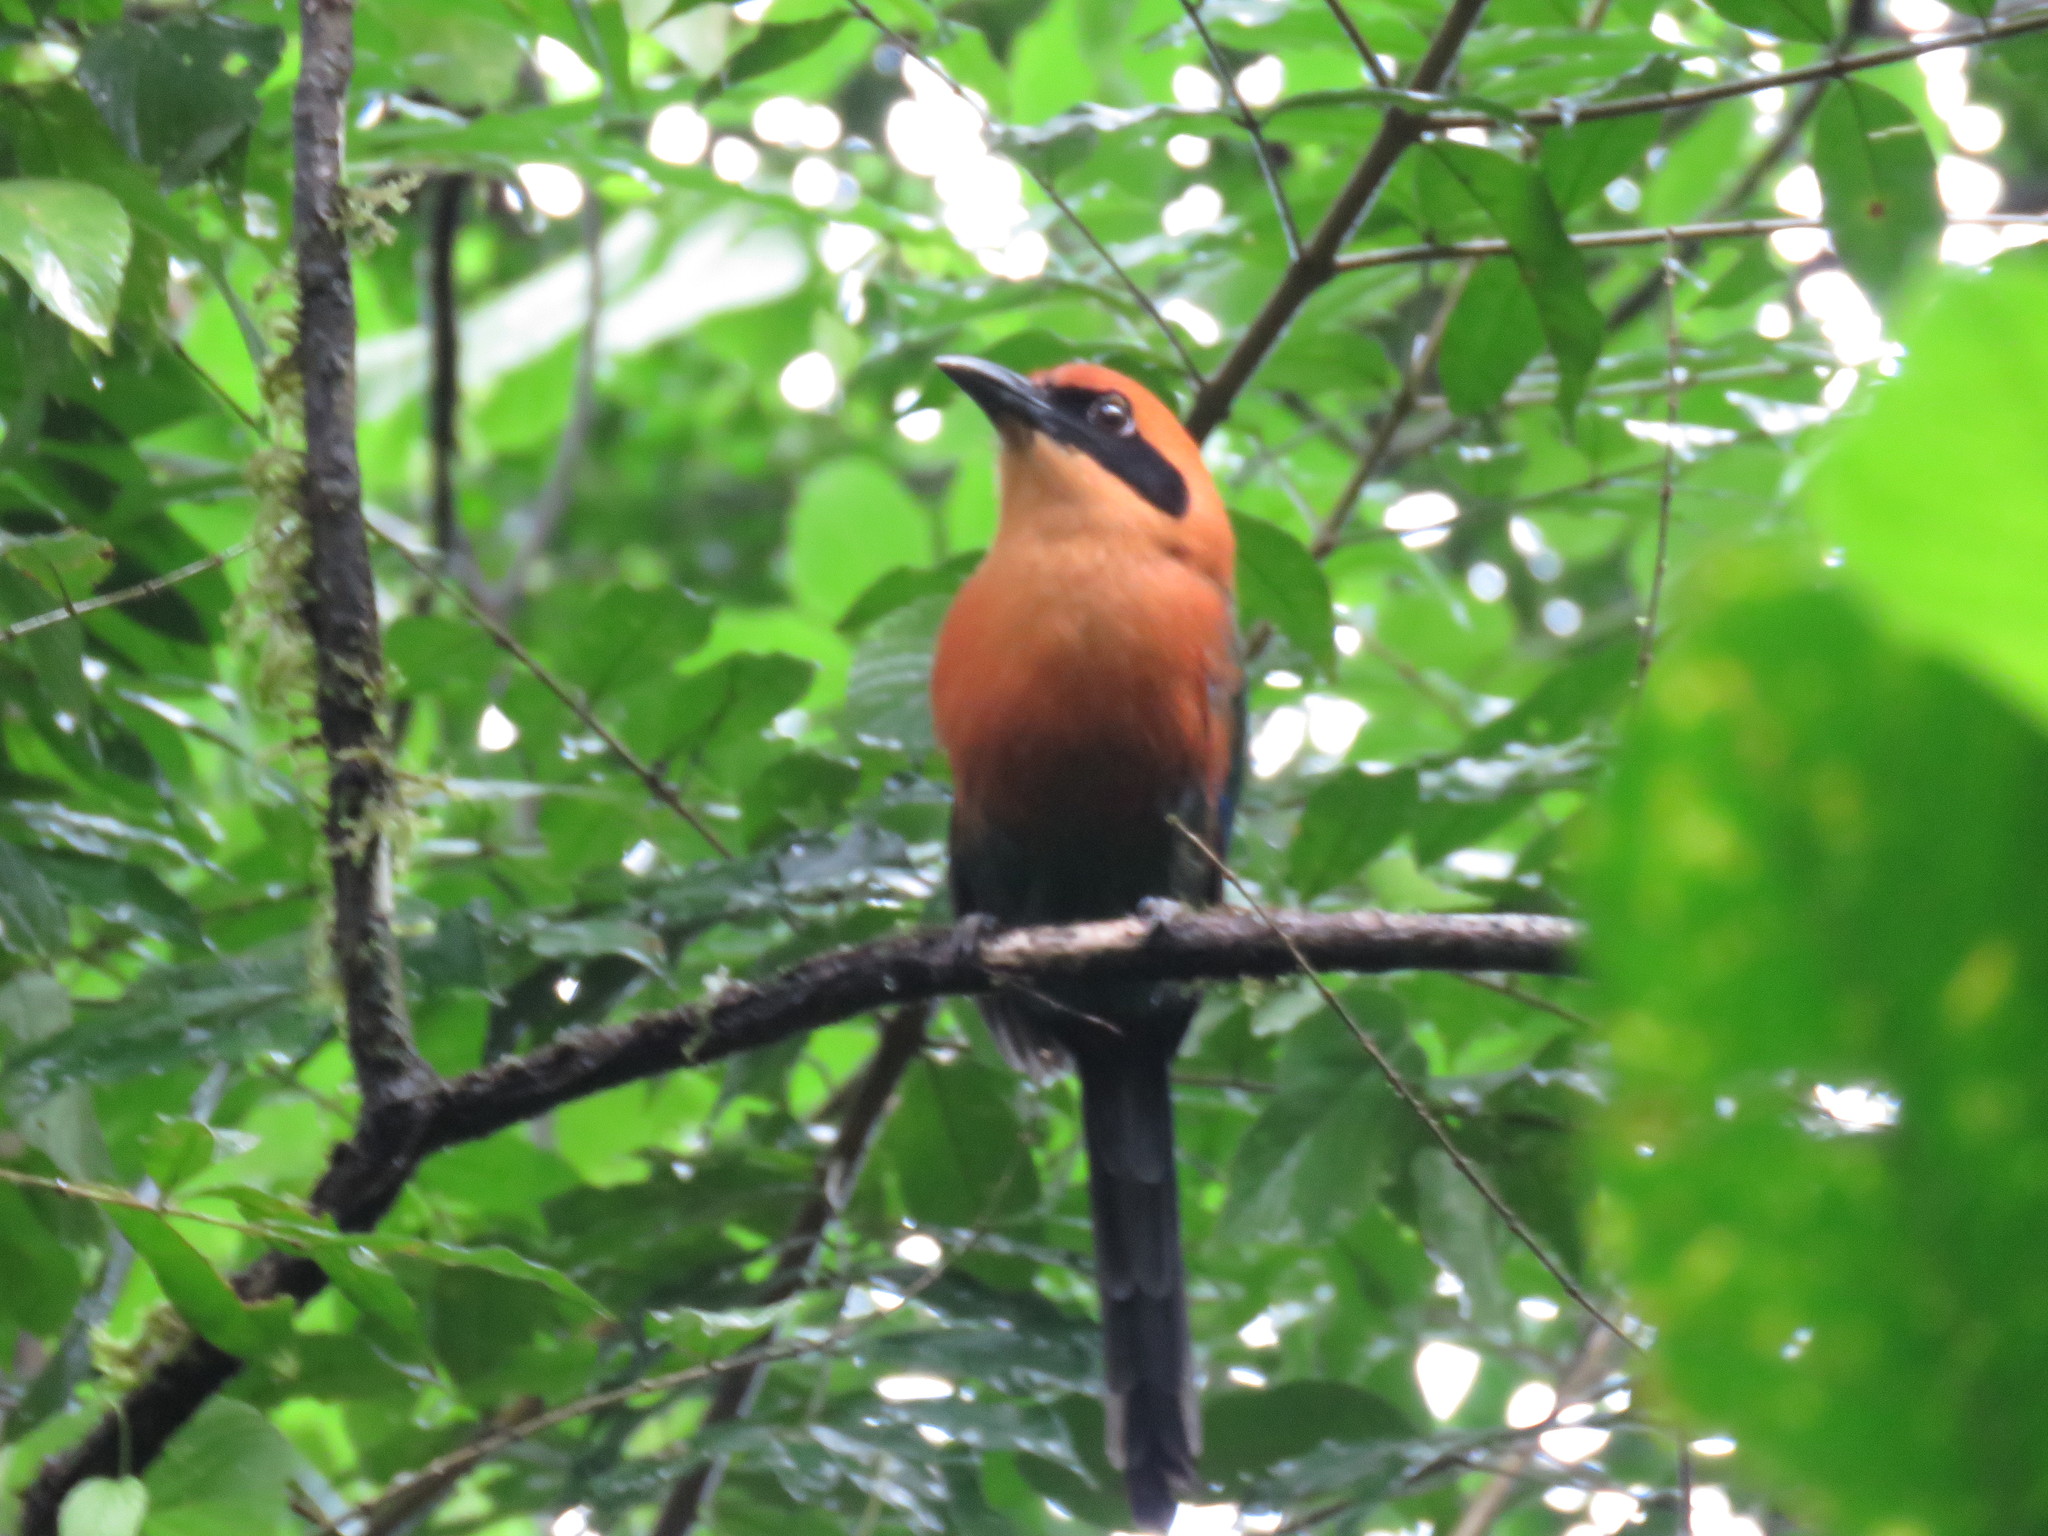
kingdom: Animalia
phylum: Chordata
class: Aves
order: Coraciiformes
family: Momotidae
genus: Baryphthengus
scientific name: Baryphthengus martii
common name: Rufous motmot
